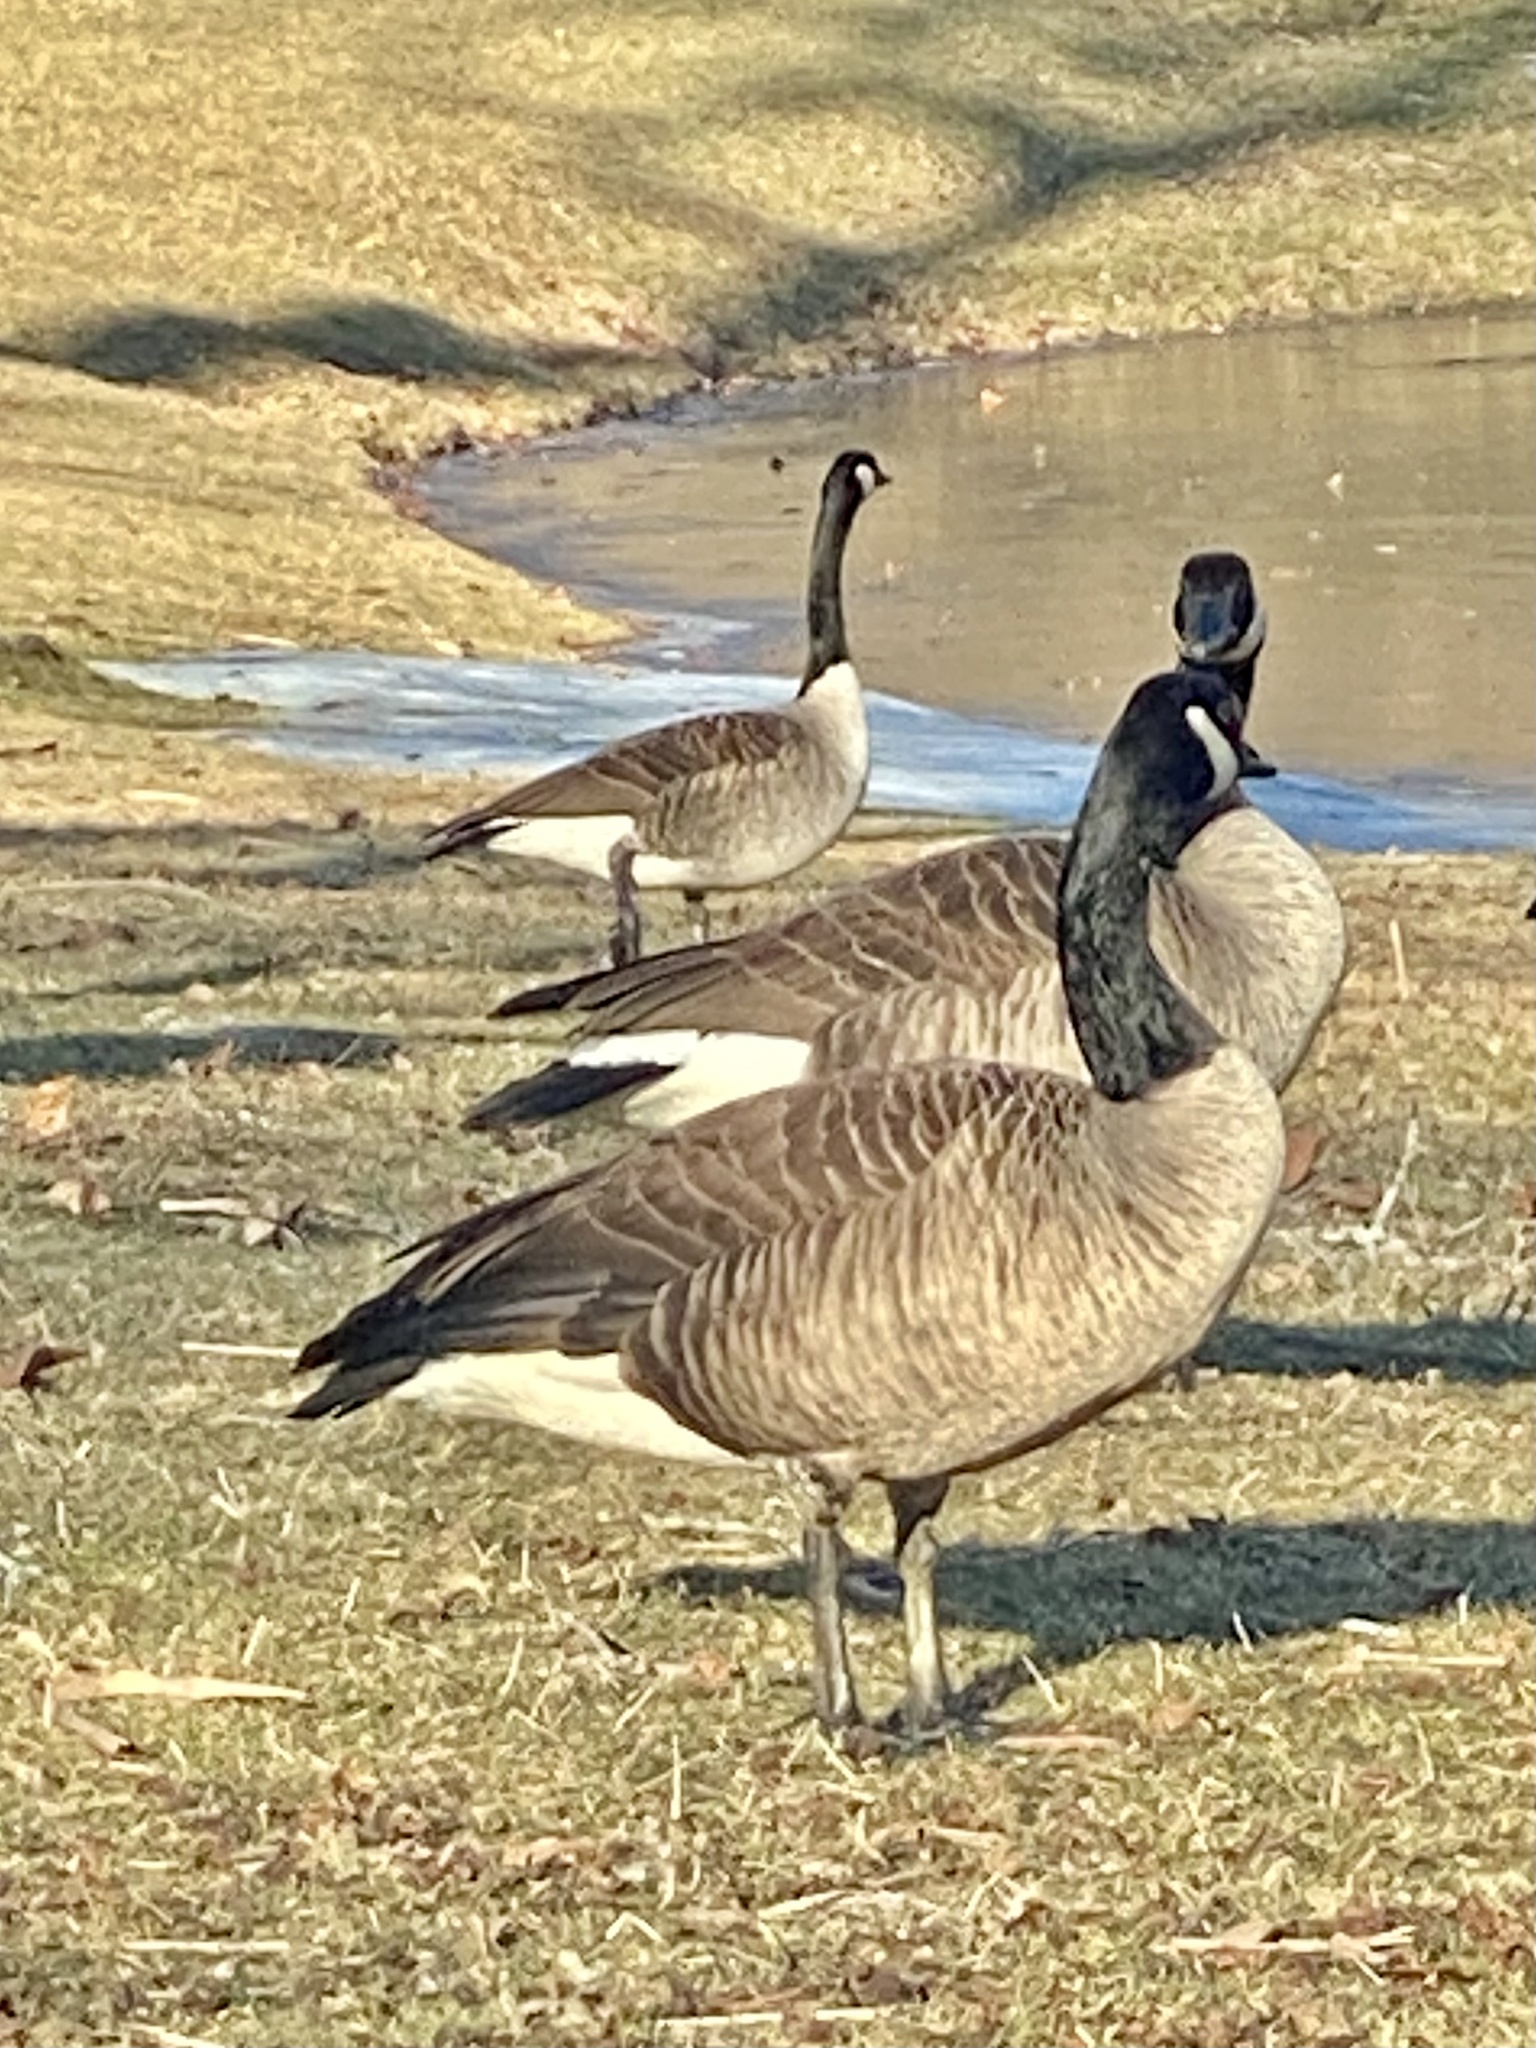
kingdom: Animalia
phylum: Chordata
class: Aves
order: Anseriformes
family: Anatidae
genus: Branta
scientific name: Branta canadensis
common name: Canada goose
